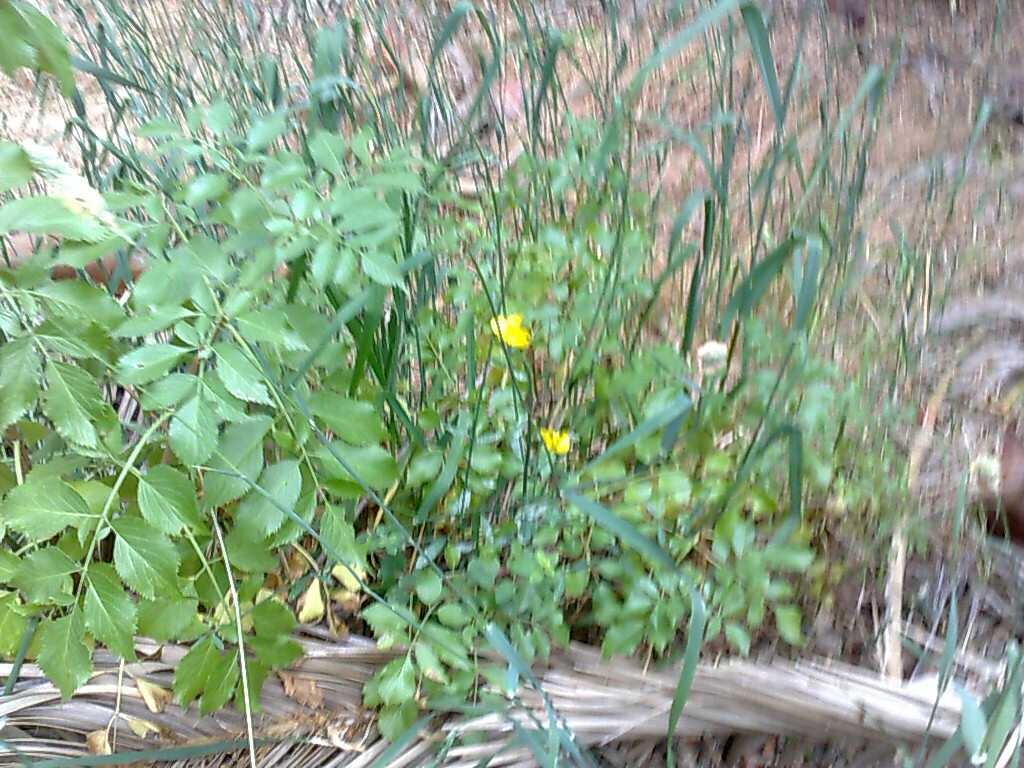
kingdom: Plantae
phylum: Tracheophyta
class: Magnoliopsida
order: Dipsacales
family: Viburnaceae
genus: Sambucus
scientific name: Sambucus cerulea
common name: Blue elder
